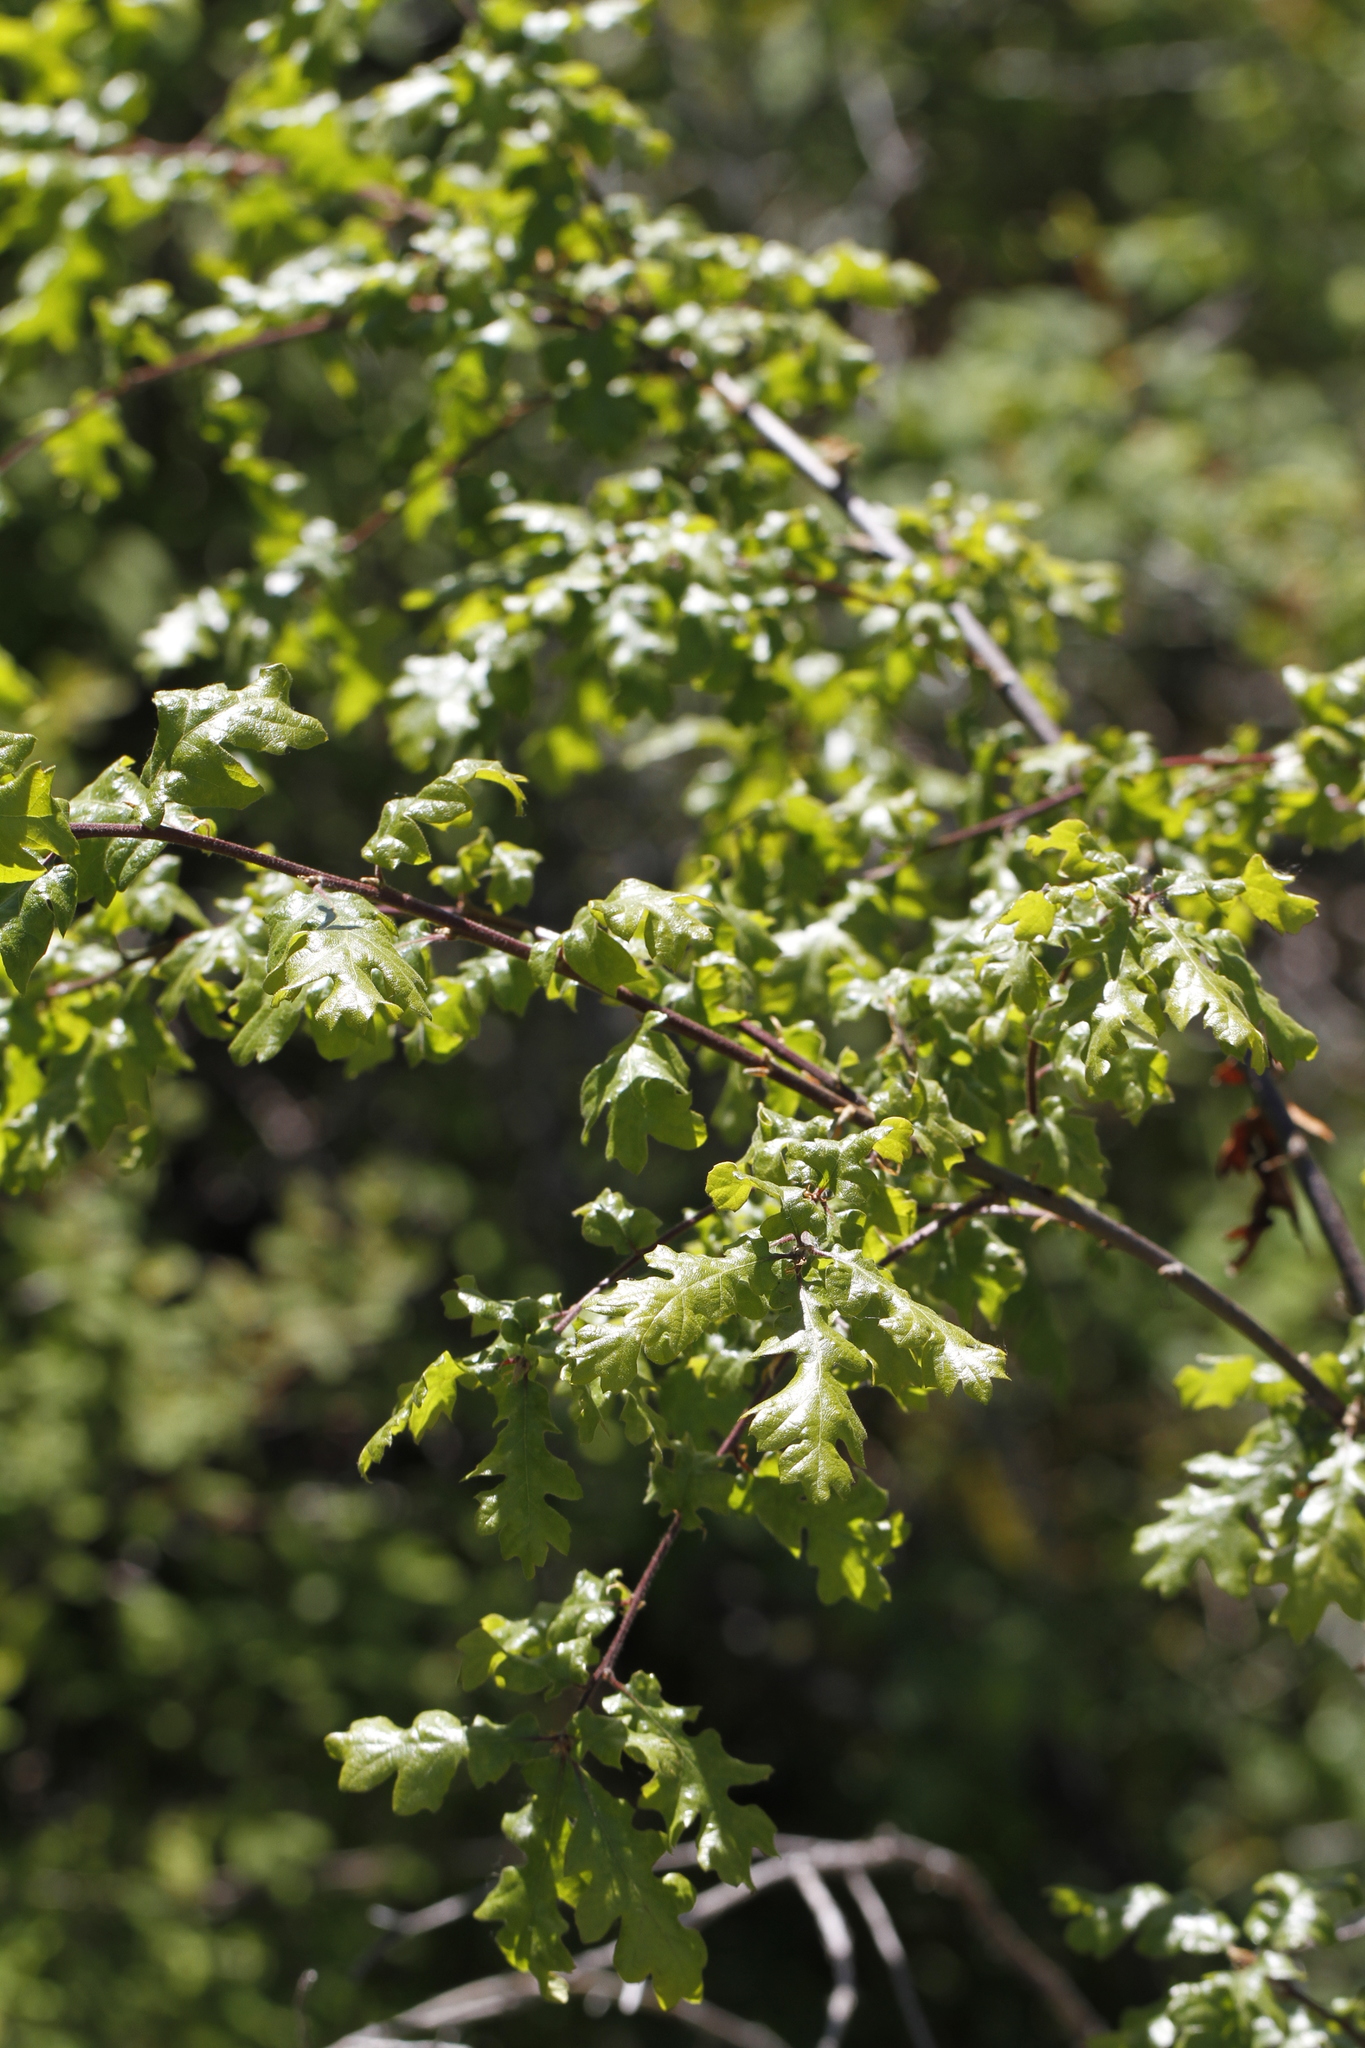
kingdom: Plantae
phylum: Tracheophyta
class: Magnoliopsida
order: Fagales
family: Fagaceae
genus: Quercus
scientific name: Quercus garryana
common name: Garry oak
